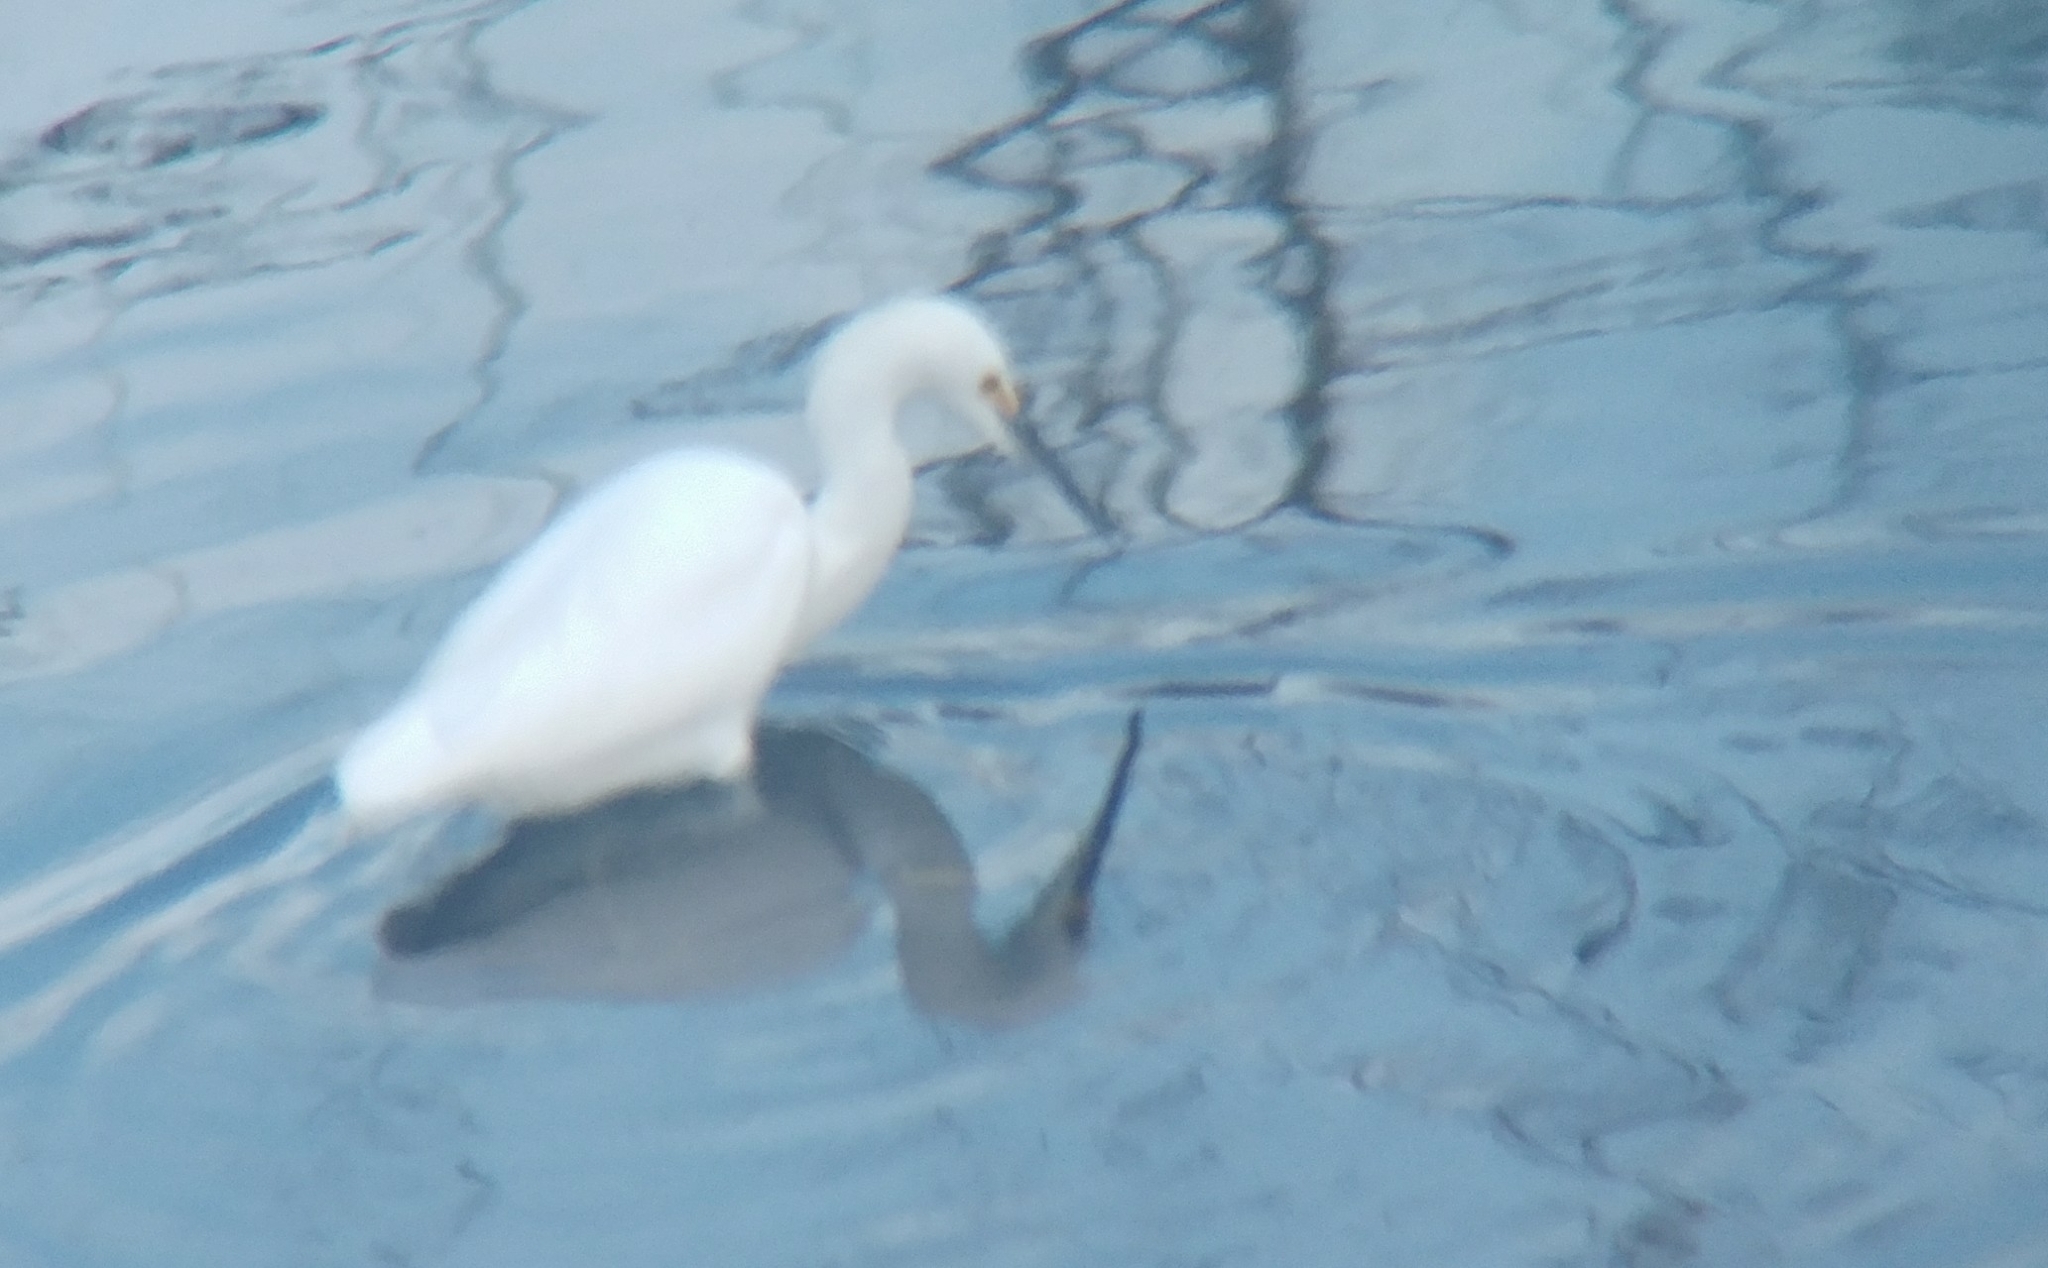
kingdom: Animalia
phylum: Chordata
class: Aves
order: Pelecaniformes
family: Ardeidae
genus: Egretta
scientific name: Egretta thula
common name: Snowy egret
